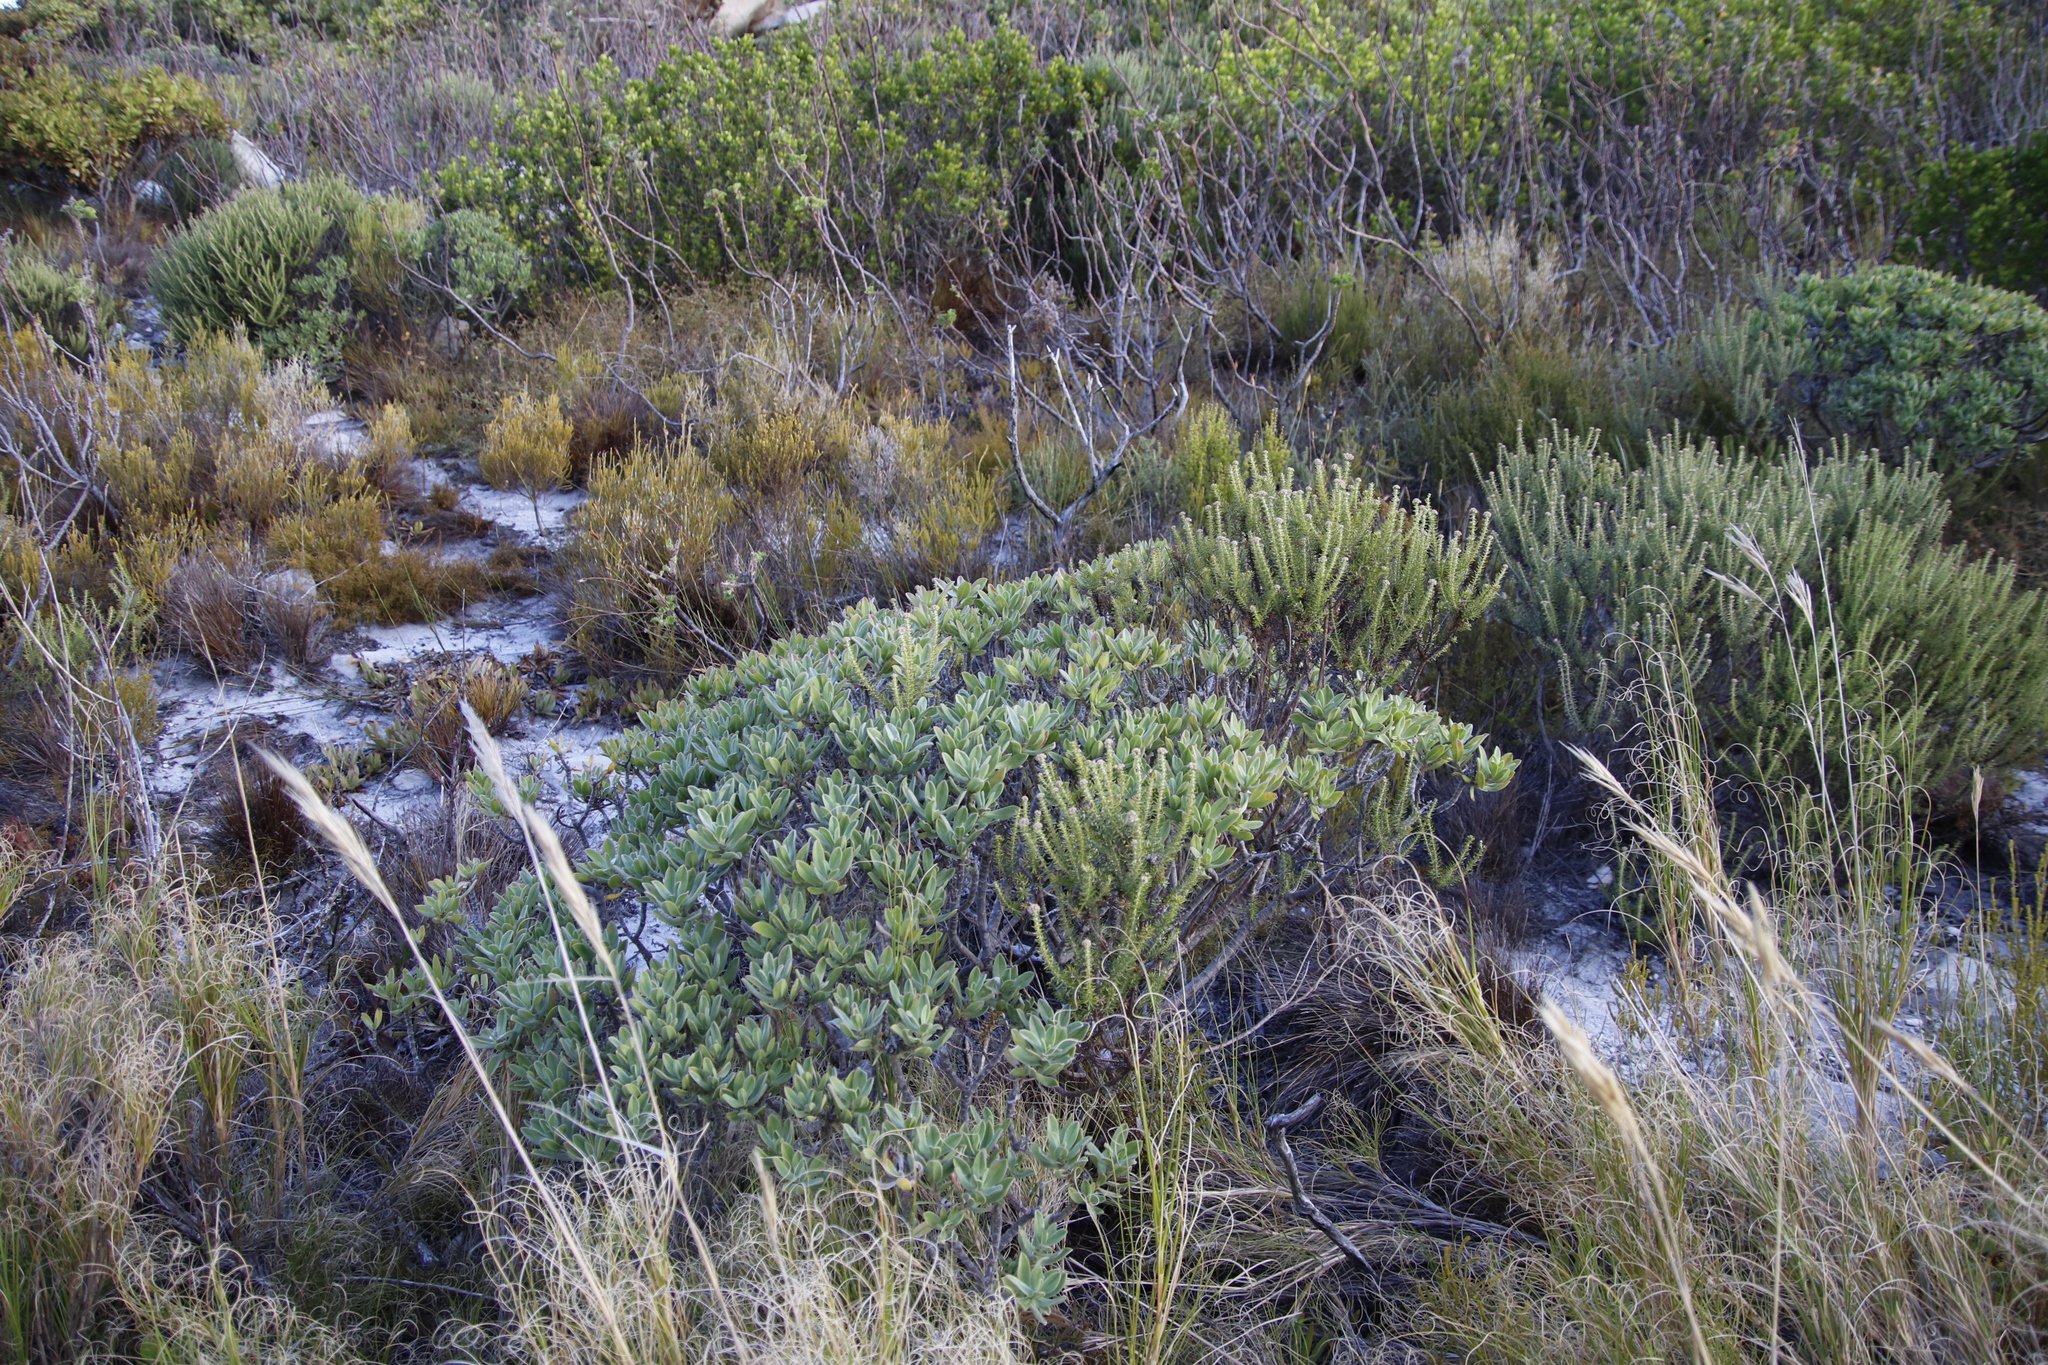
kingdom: Plantae
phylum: Tracheophyta
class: Magnoliopsida
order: Boraginales
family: Boraginaceae
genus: Lobostemon
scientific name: Lobostemon montanus
